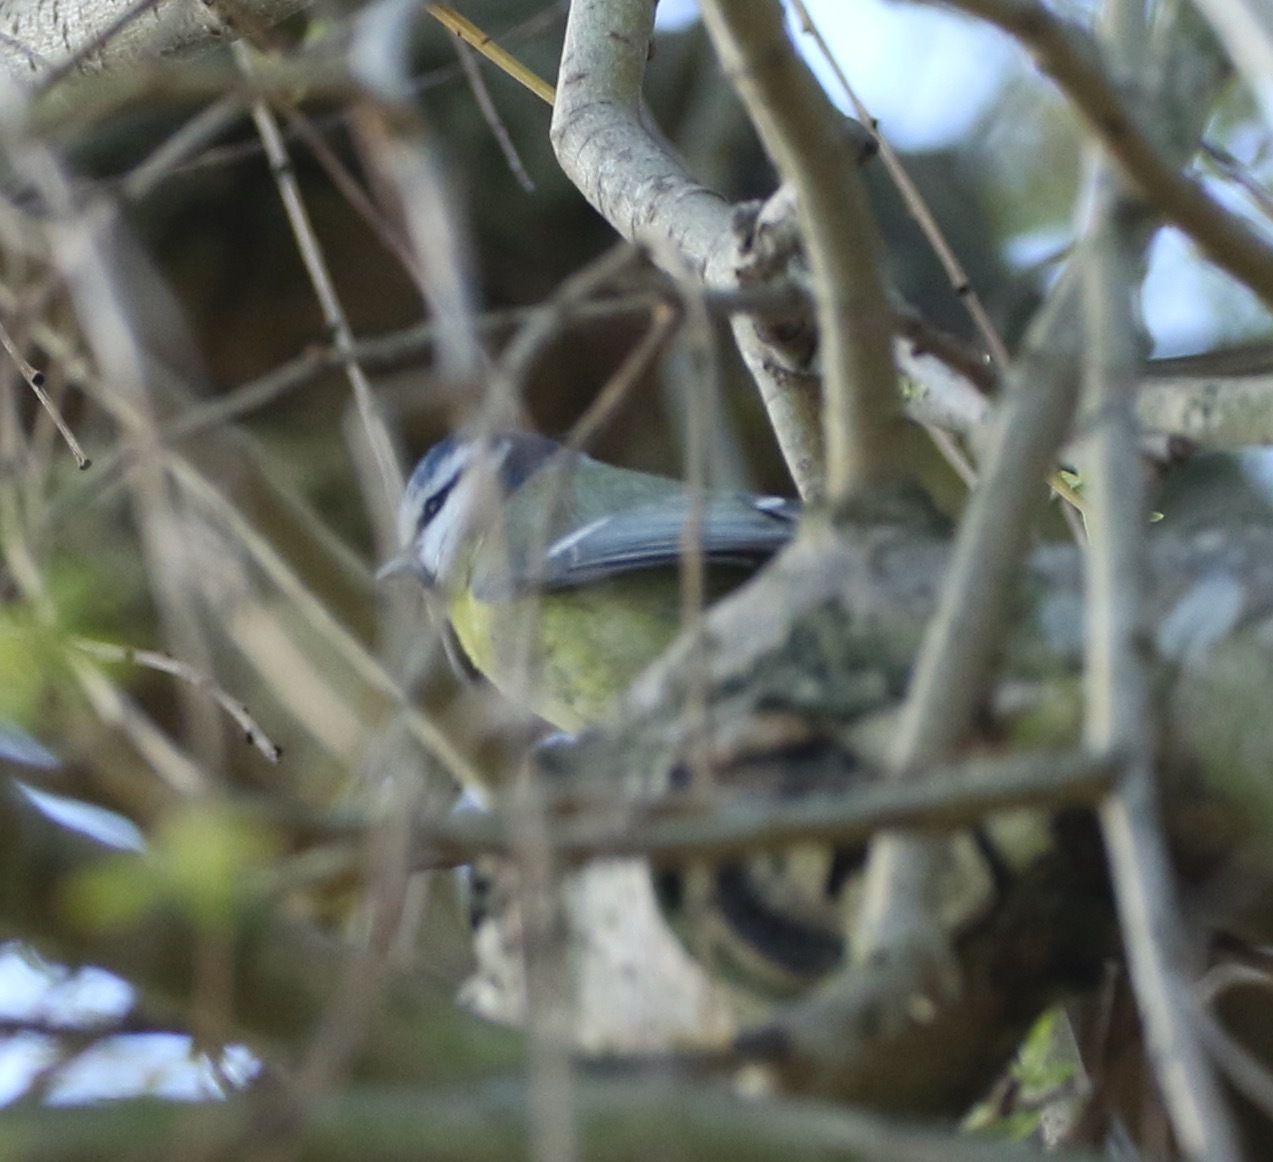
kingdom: Animalia
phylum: Chordata
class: Aves
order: Passeriformes
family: Paridae
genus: Cyanistes
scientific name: Cyanistes caeruleus
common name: Eurasian blue tit
